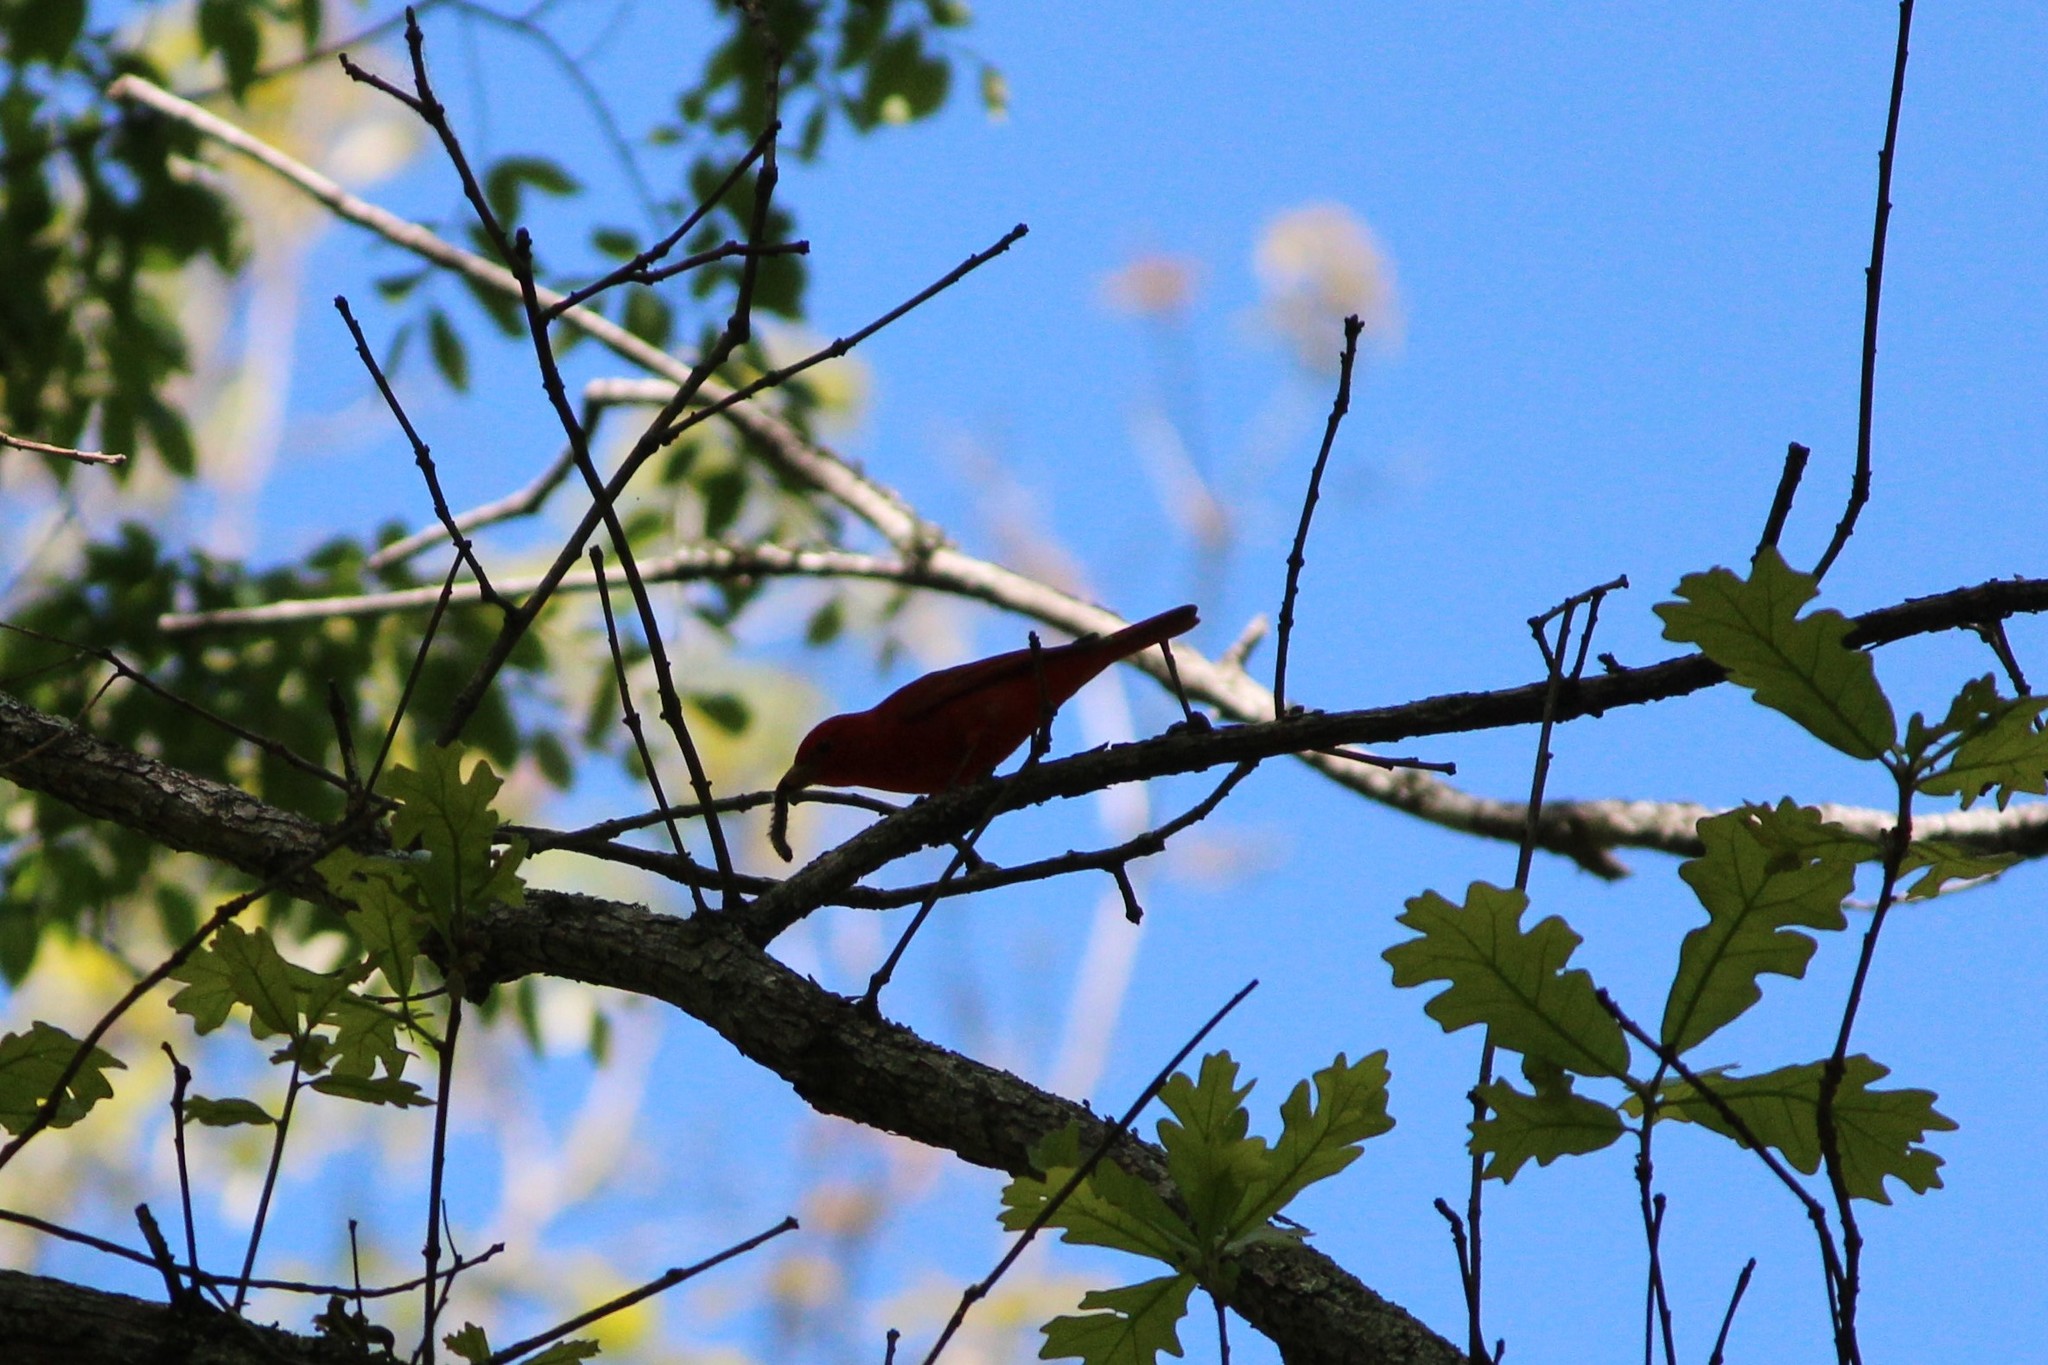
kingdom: Animalia
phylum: Chordata
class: Aves
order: Passeriformes
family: Cardinalidae
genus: Piranga
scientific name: Piranga rubra
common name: Summer tanager
